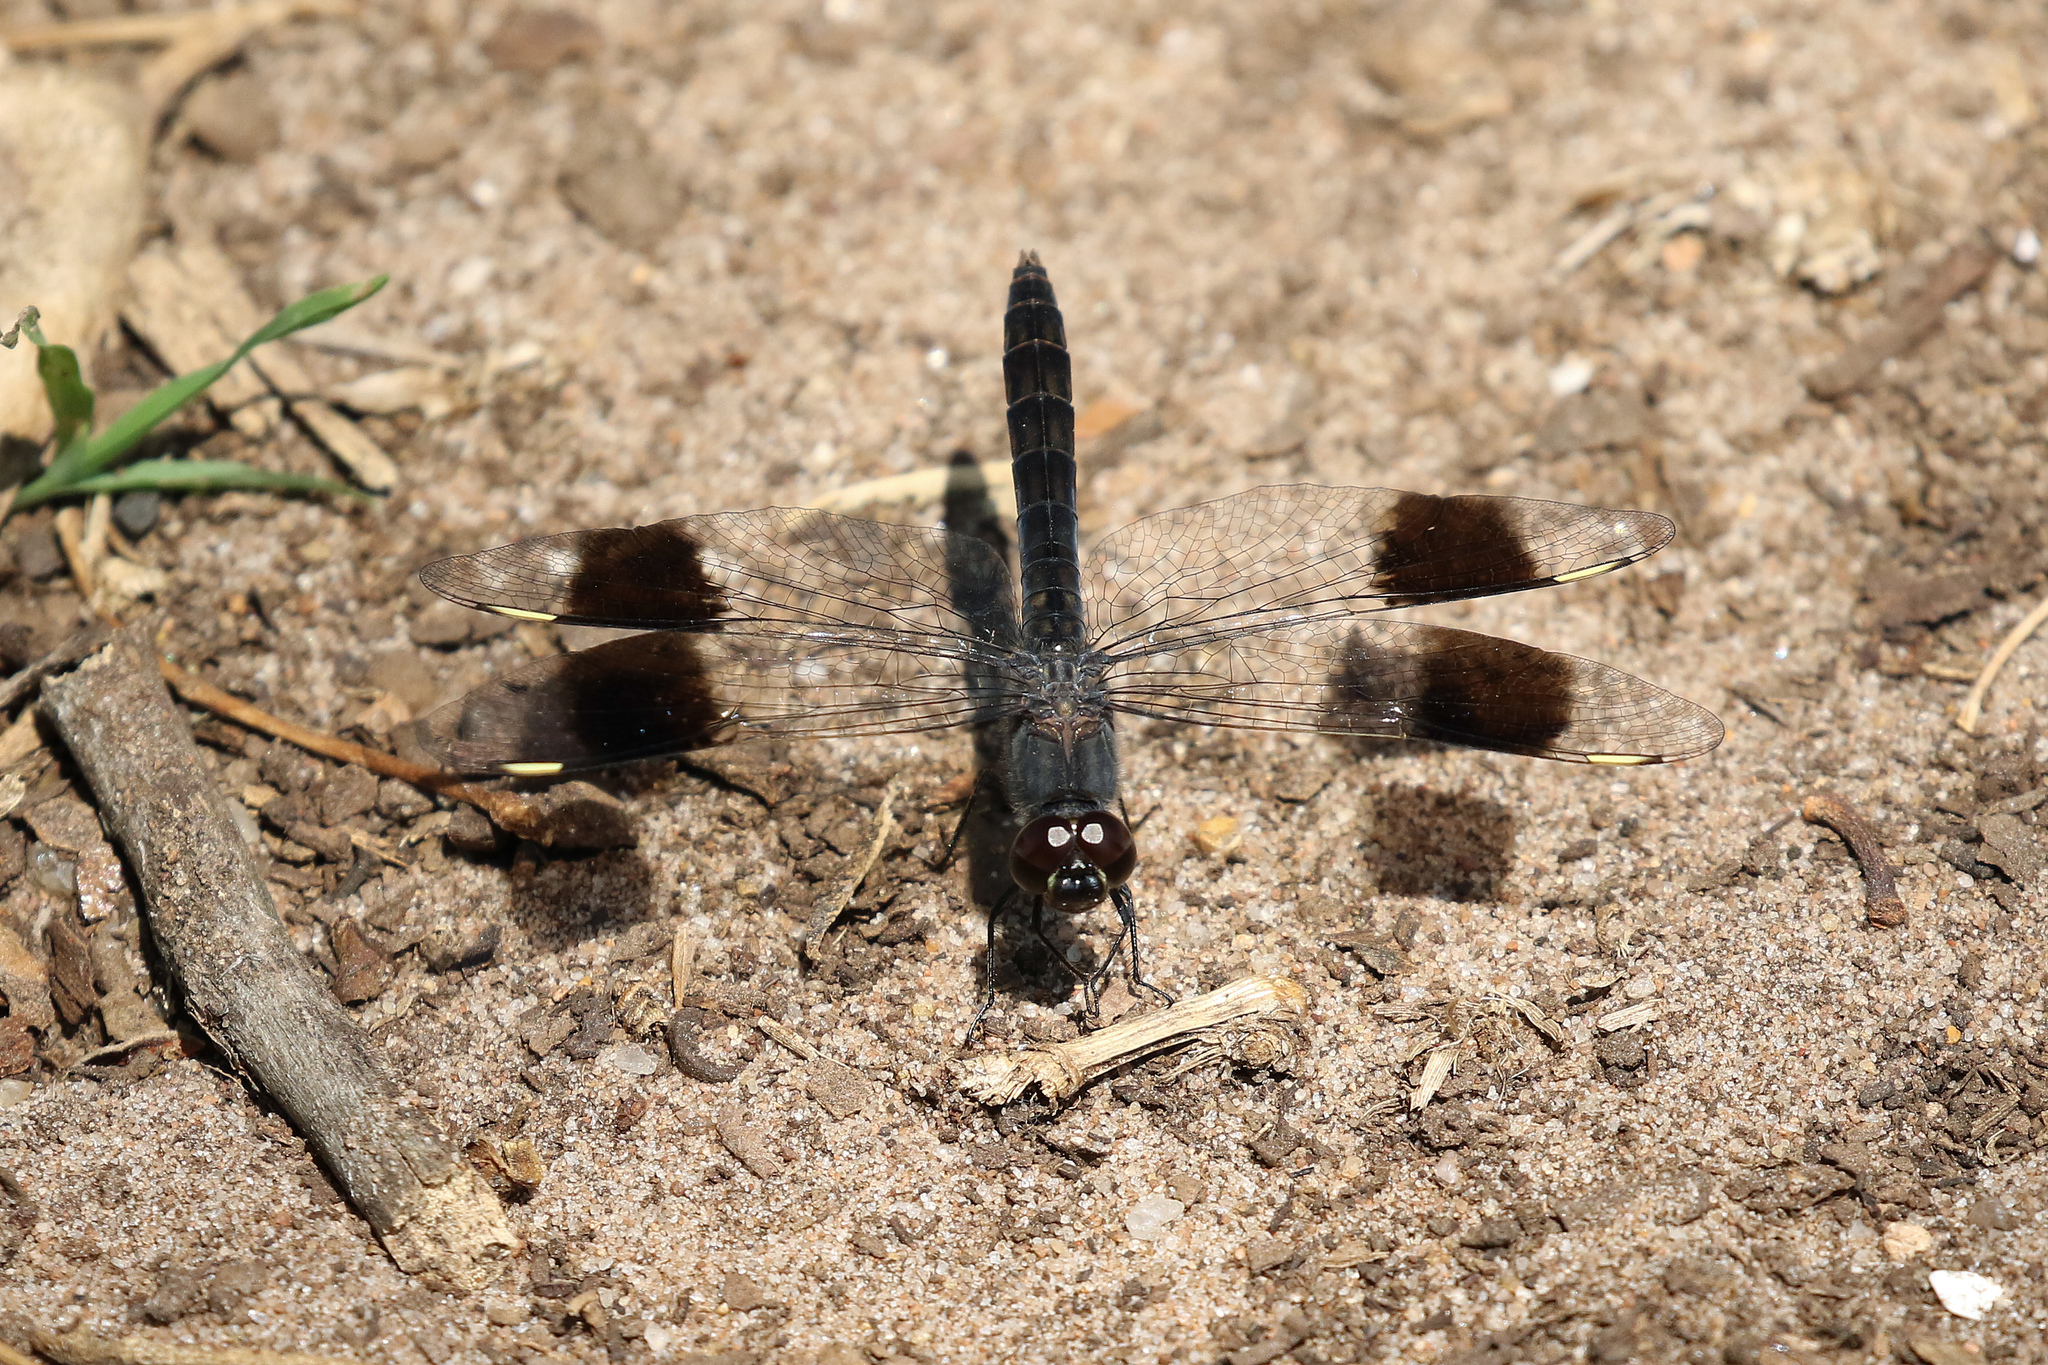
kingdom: Animalia
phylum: Arthropoda
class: Insecta
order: Odonata
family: Libellulidae
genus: Brachythemis
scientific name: Brachythemis leucosticta
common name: Banded groundling
